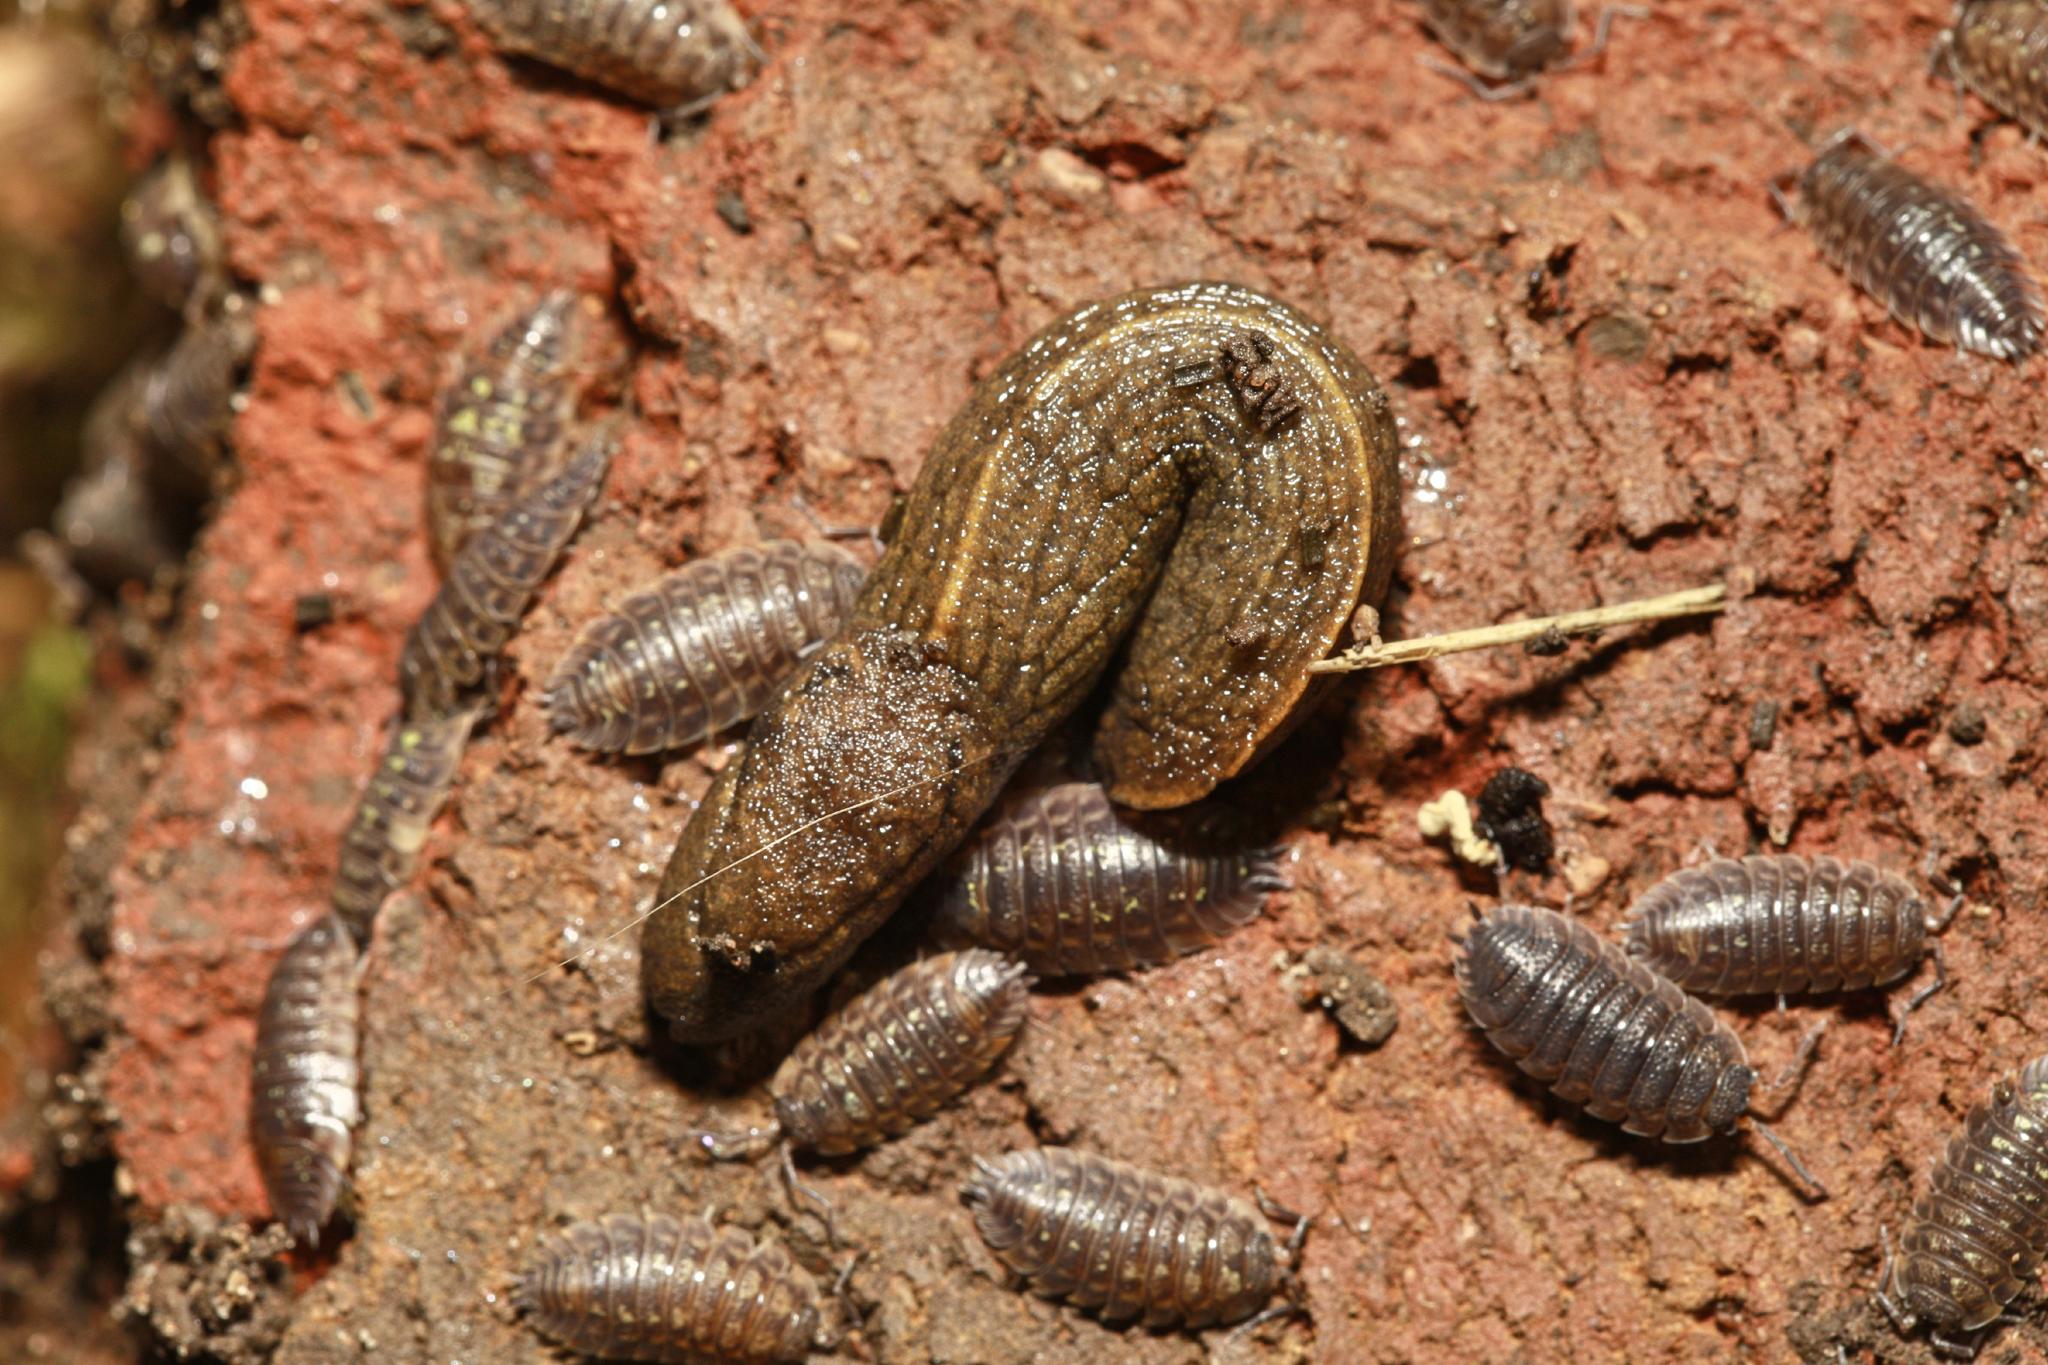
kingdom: Animalia
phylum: Mollusca
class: Gastropoda
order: Stylommatophora
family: Milacidae
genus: Tandonia
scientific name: Tandonia budapestensis
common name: Budapest slug
